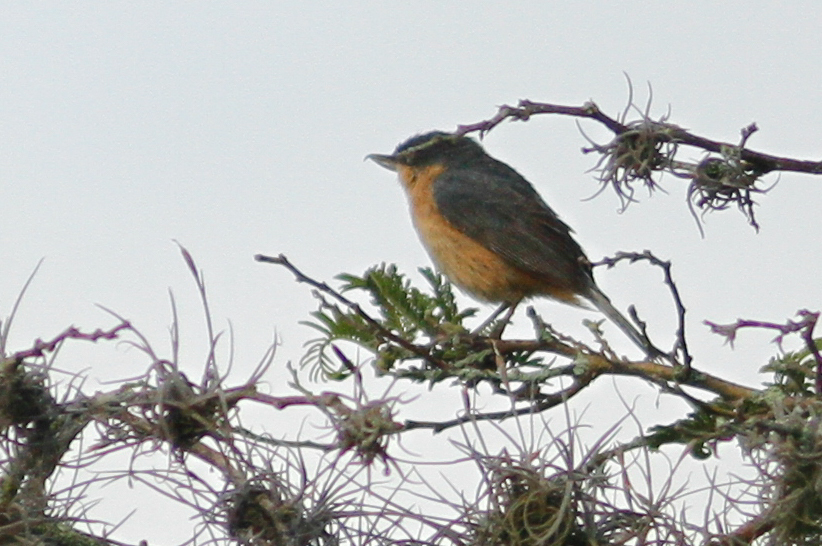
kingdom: Animalia
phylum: Chordata
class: Aves
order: Passeriformes
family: Thraupidae
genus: Diglossa
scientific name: Diglossa sittoides
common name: Rusty flowerpiercer
